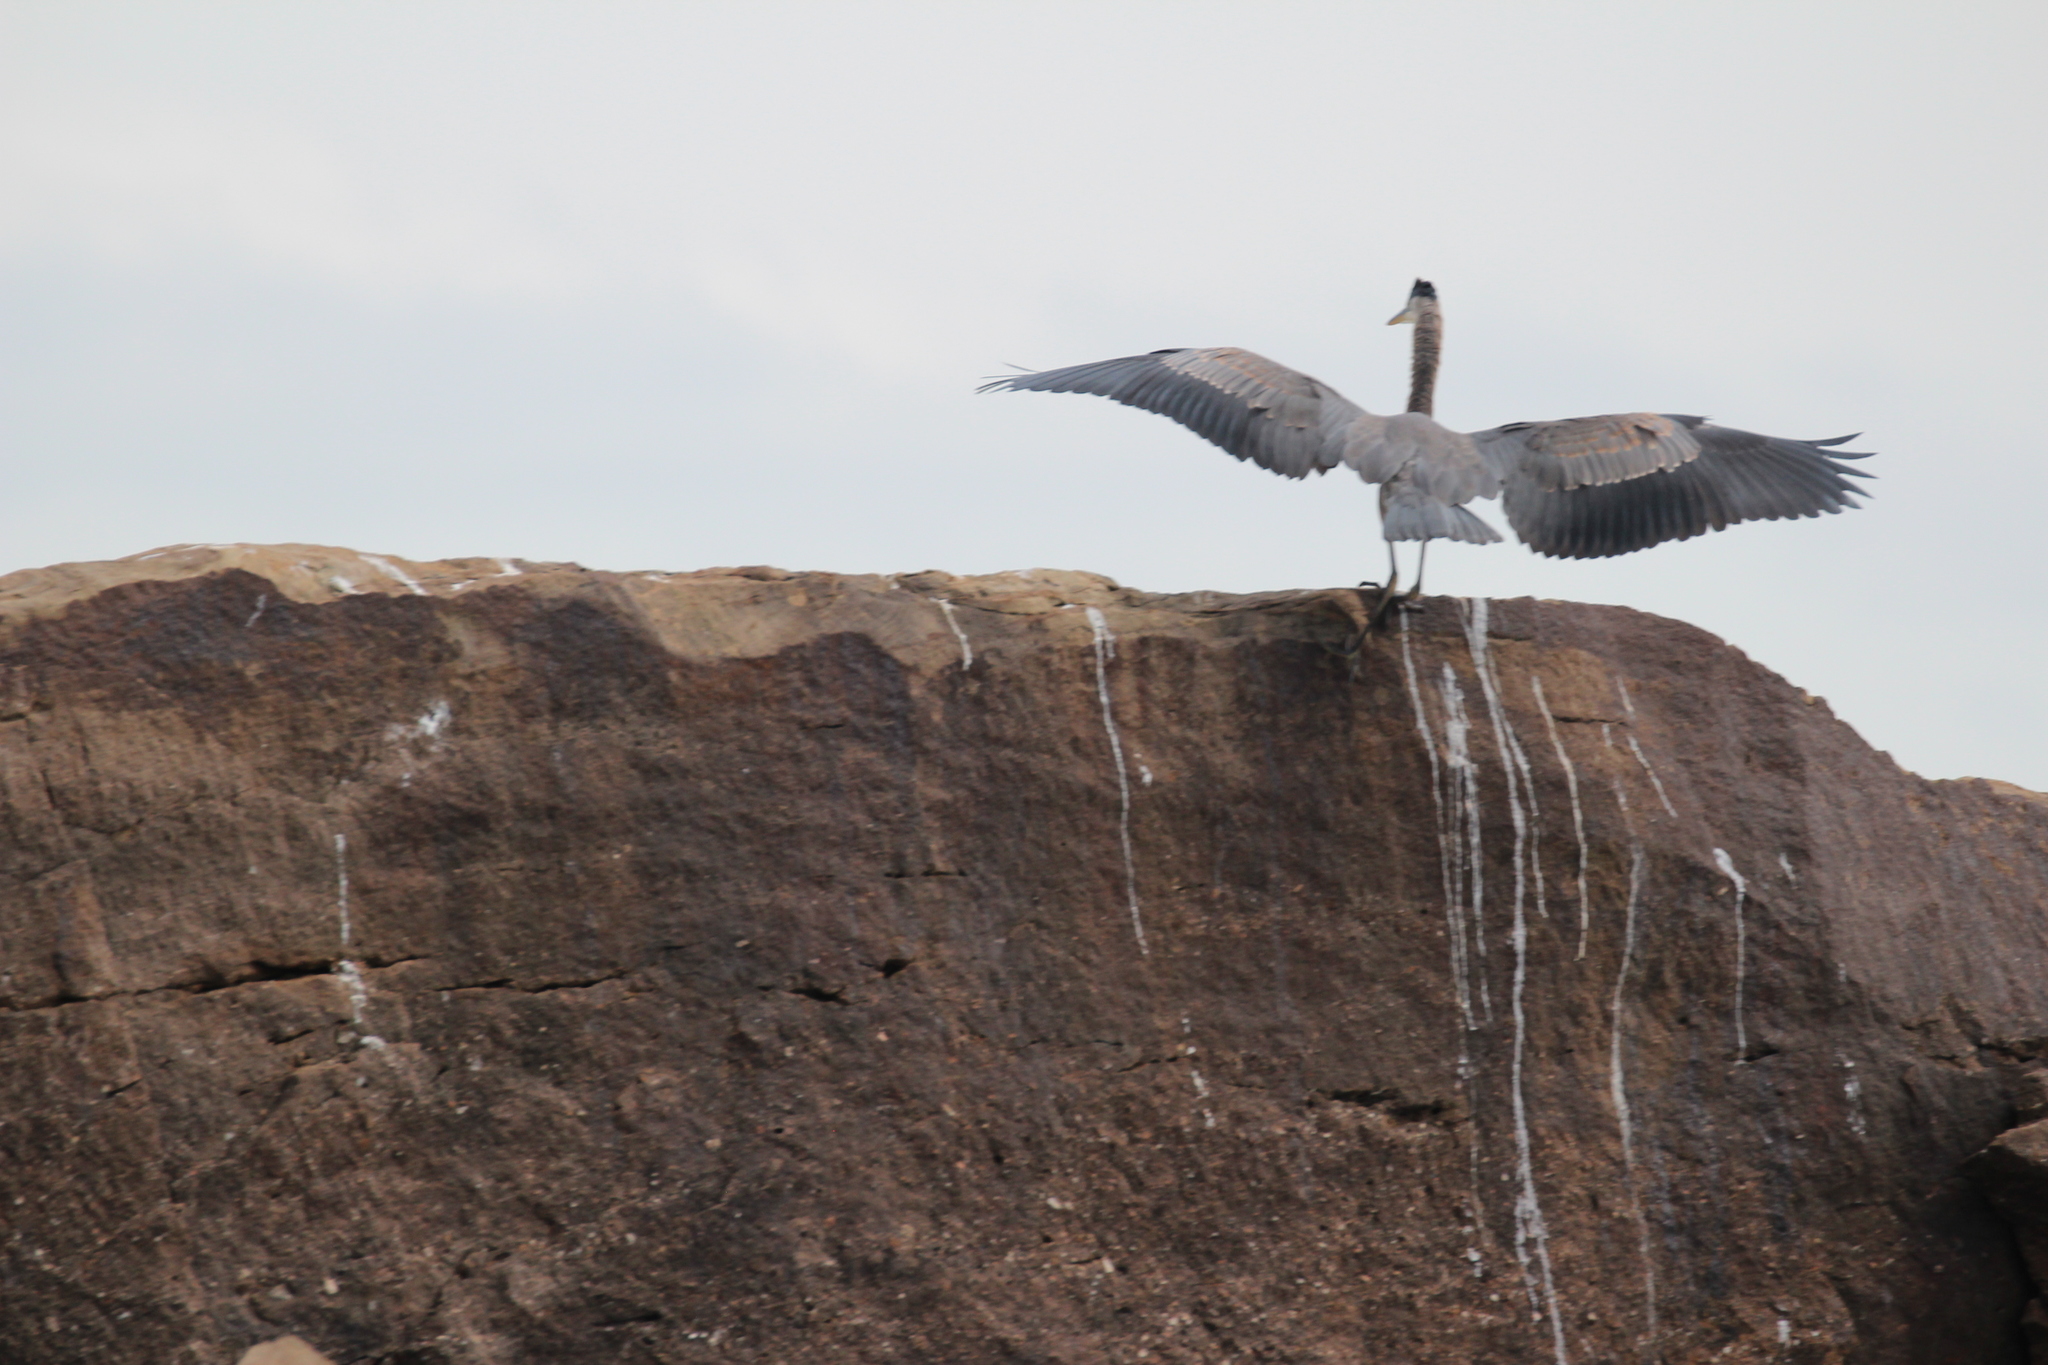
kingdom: Animalia
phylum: Chordata
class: Aves
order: Pelecaniformes
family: Ardeidae
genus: Ardea
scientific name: Ardea herodias
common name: Great blue heron
